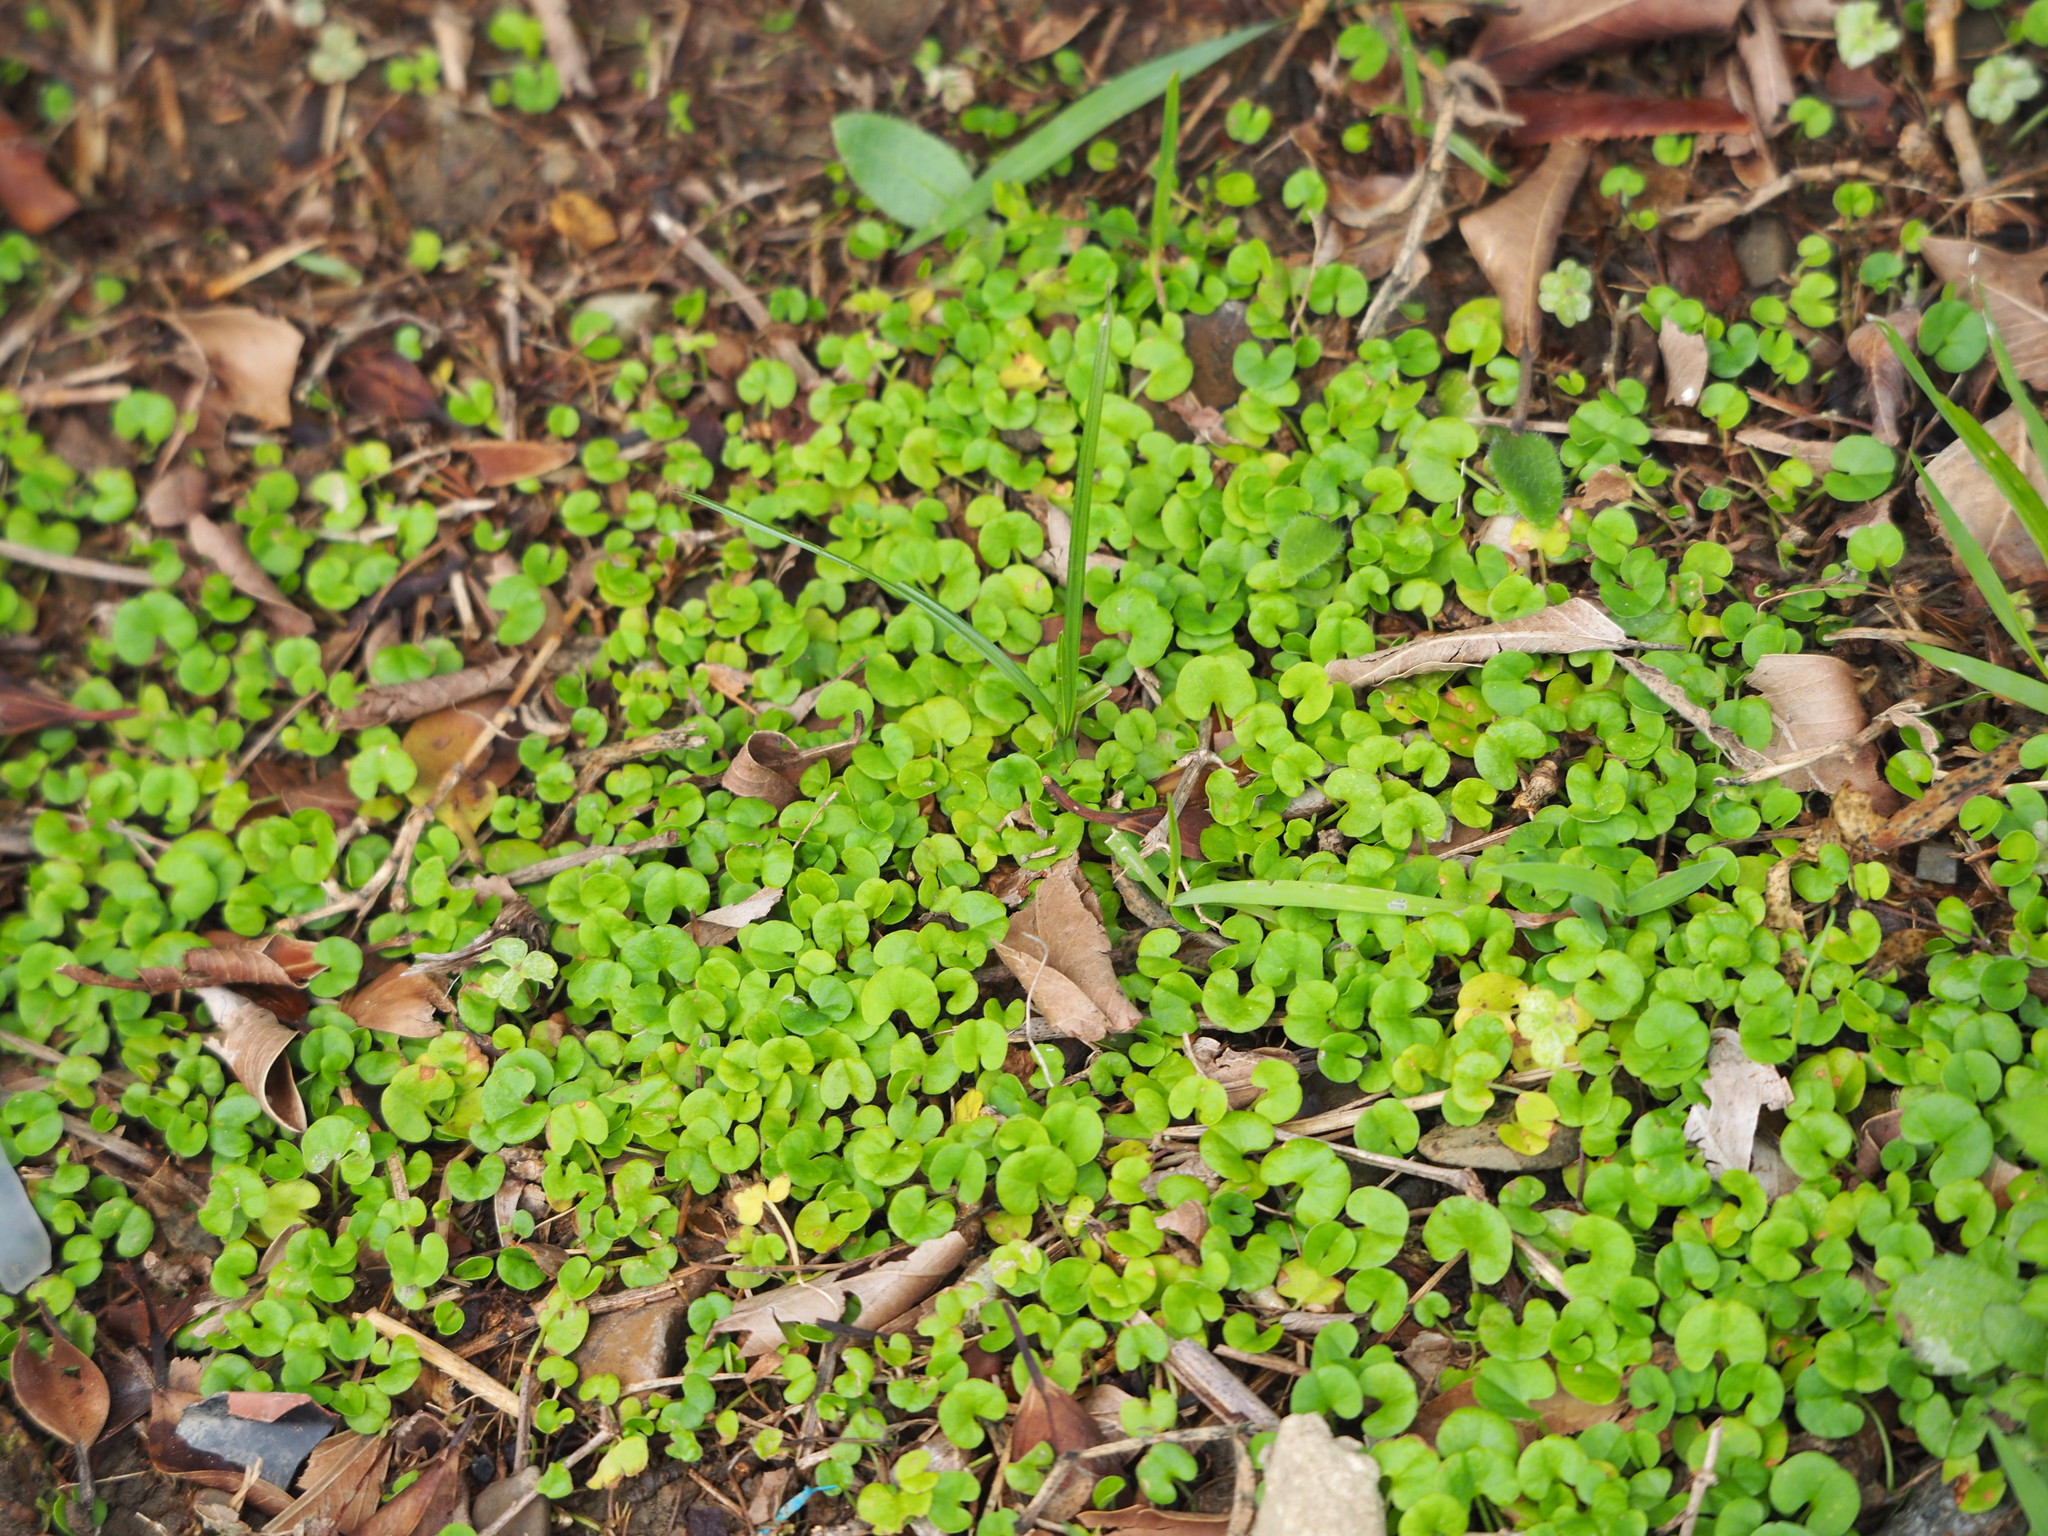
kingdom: Plantae
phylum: Tracheophyta
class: Magnoliopsida
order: Solanales
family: Convolvulaceae
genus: Dichondra
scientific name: Dichondra micrantha
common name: Kidneyweed
